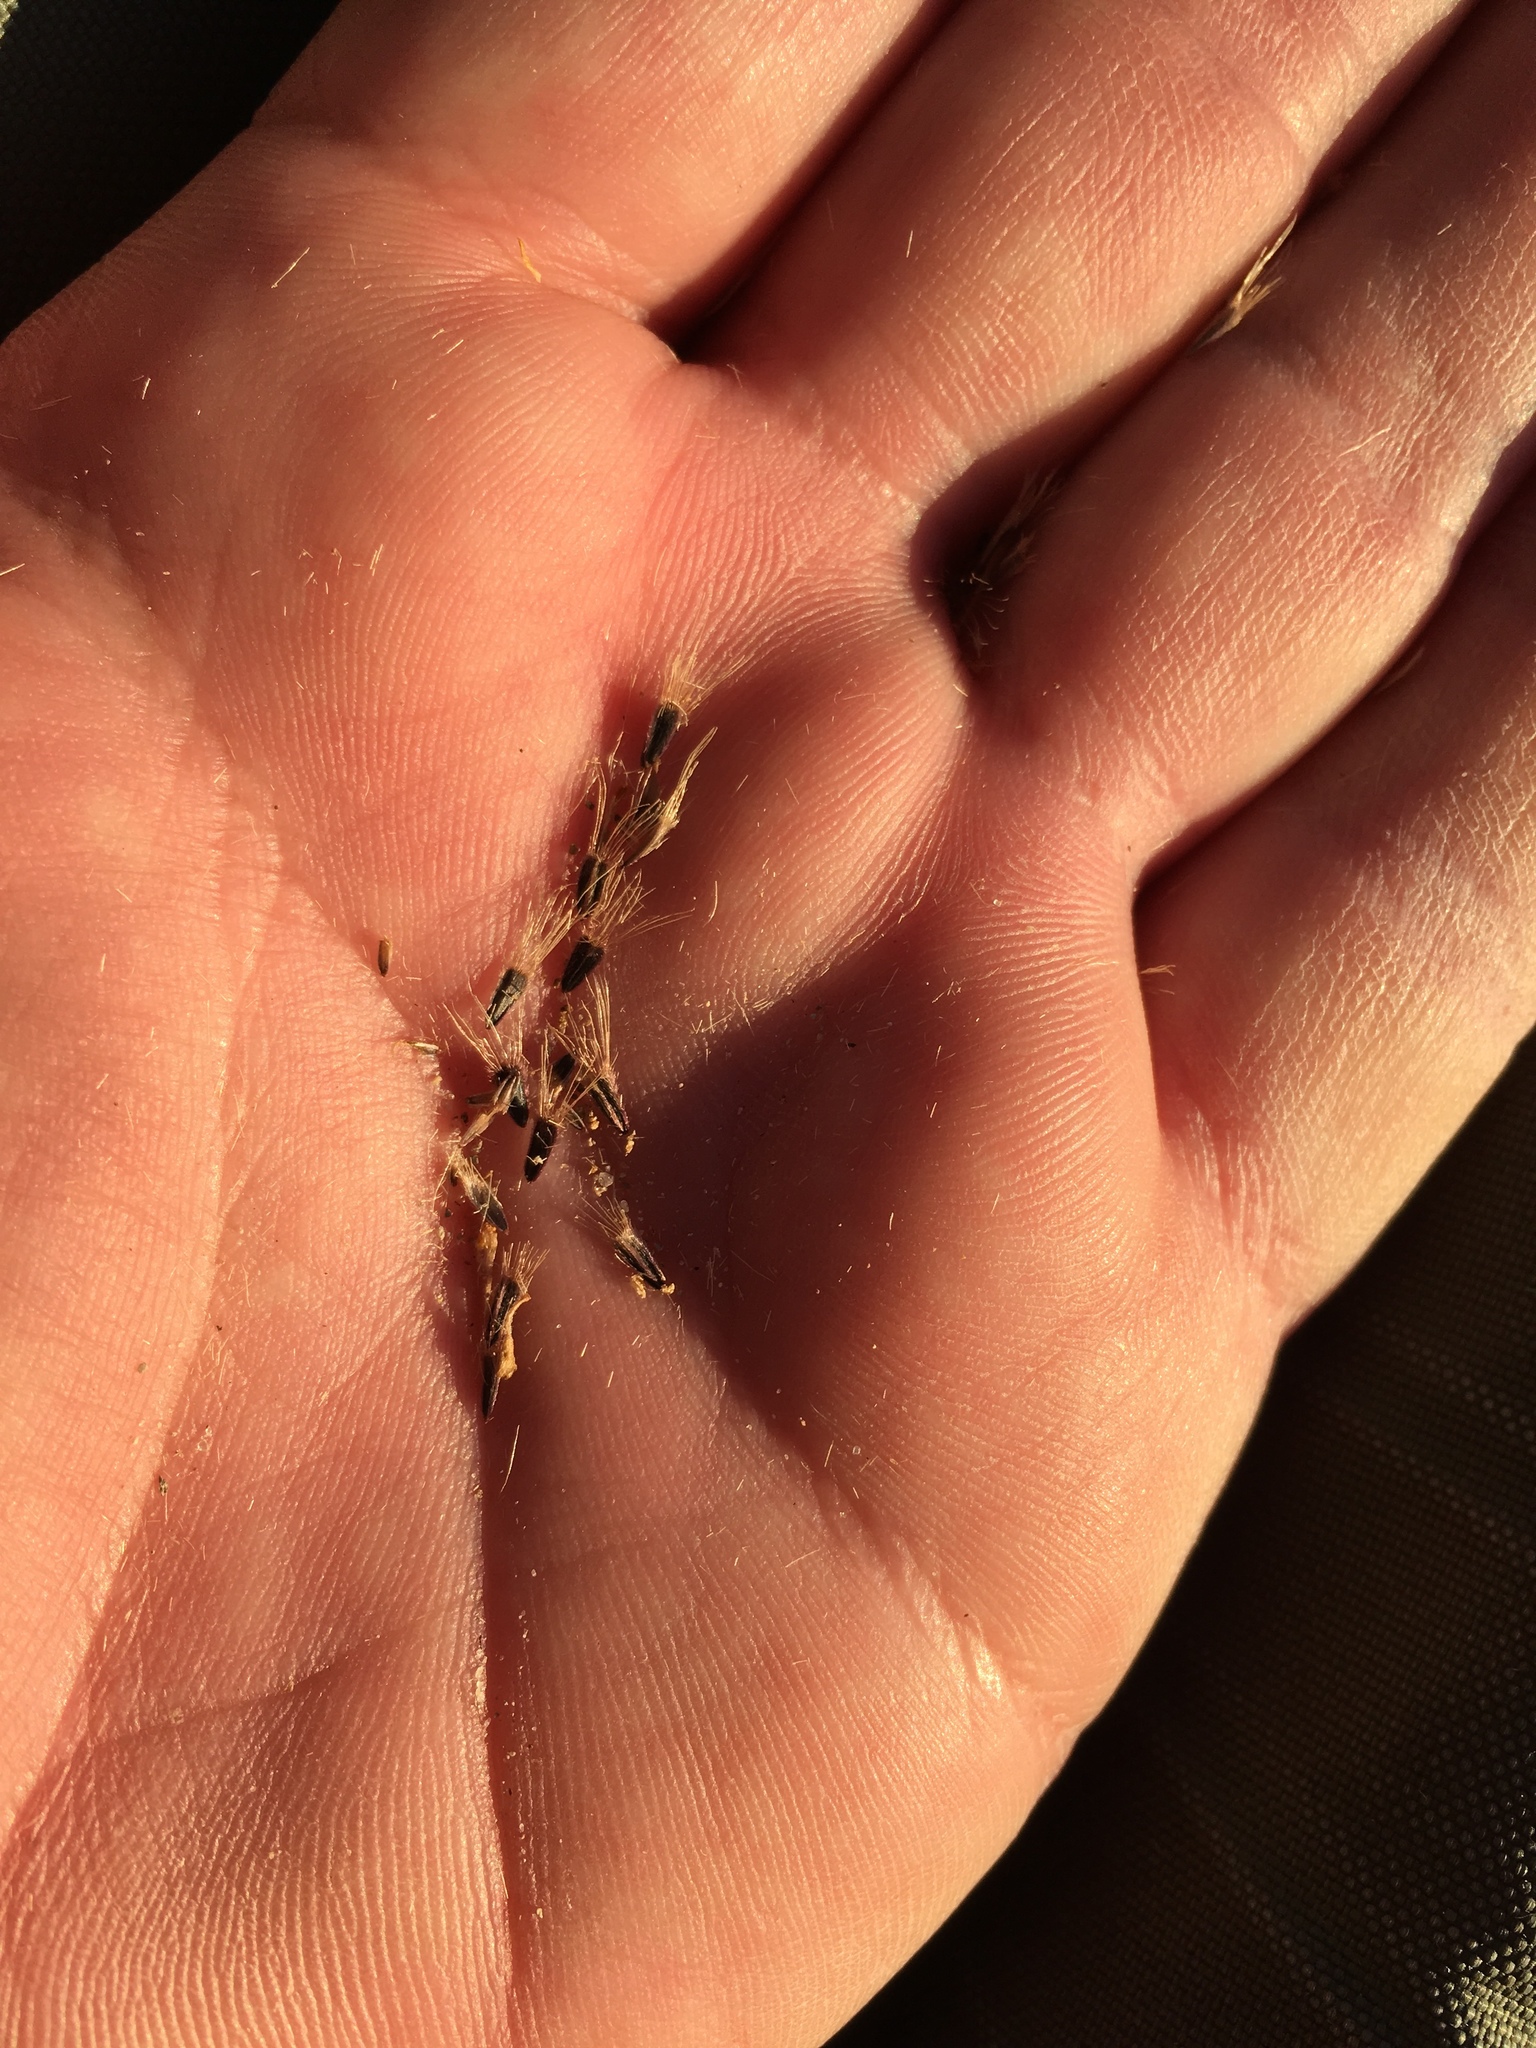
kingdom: Plantae
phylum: Tracheophyta
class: Magnoliopsida
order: Asterales
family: Asteraceae
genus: Bartlettia
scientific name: Bartlettia scaposa
